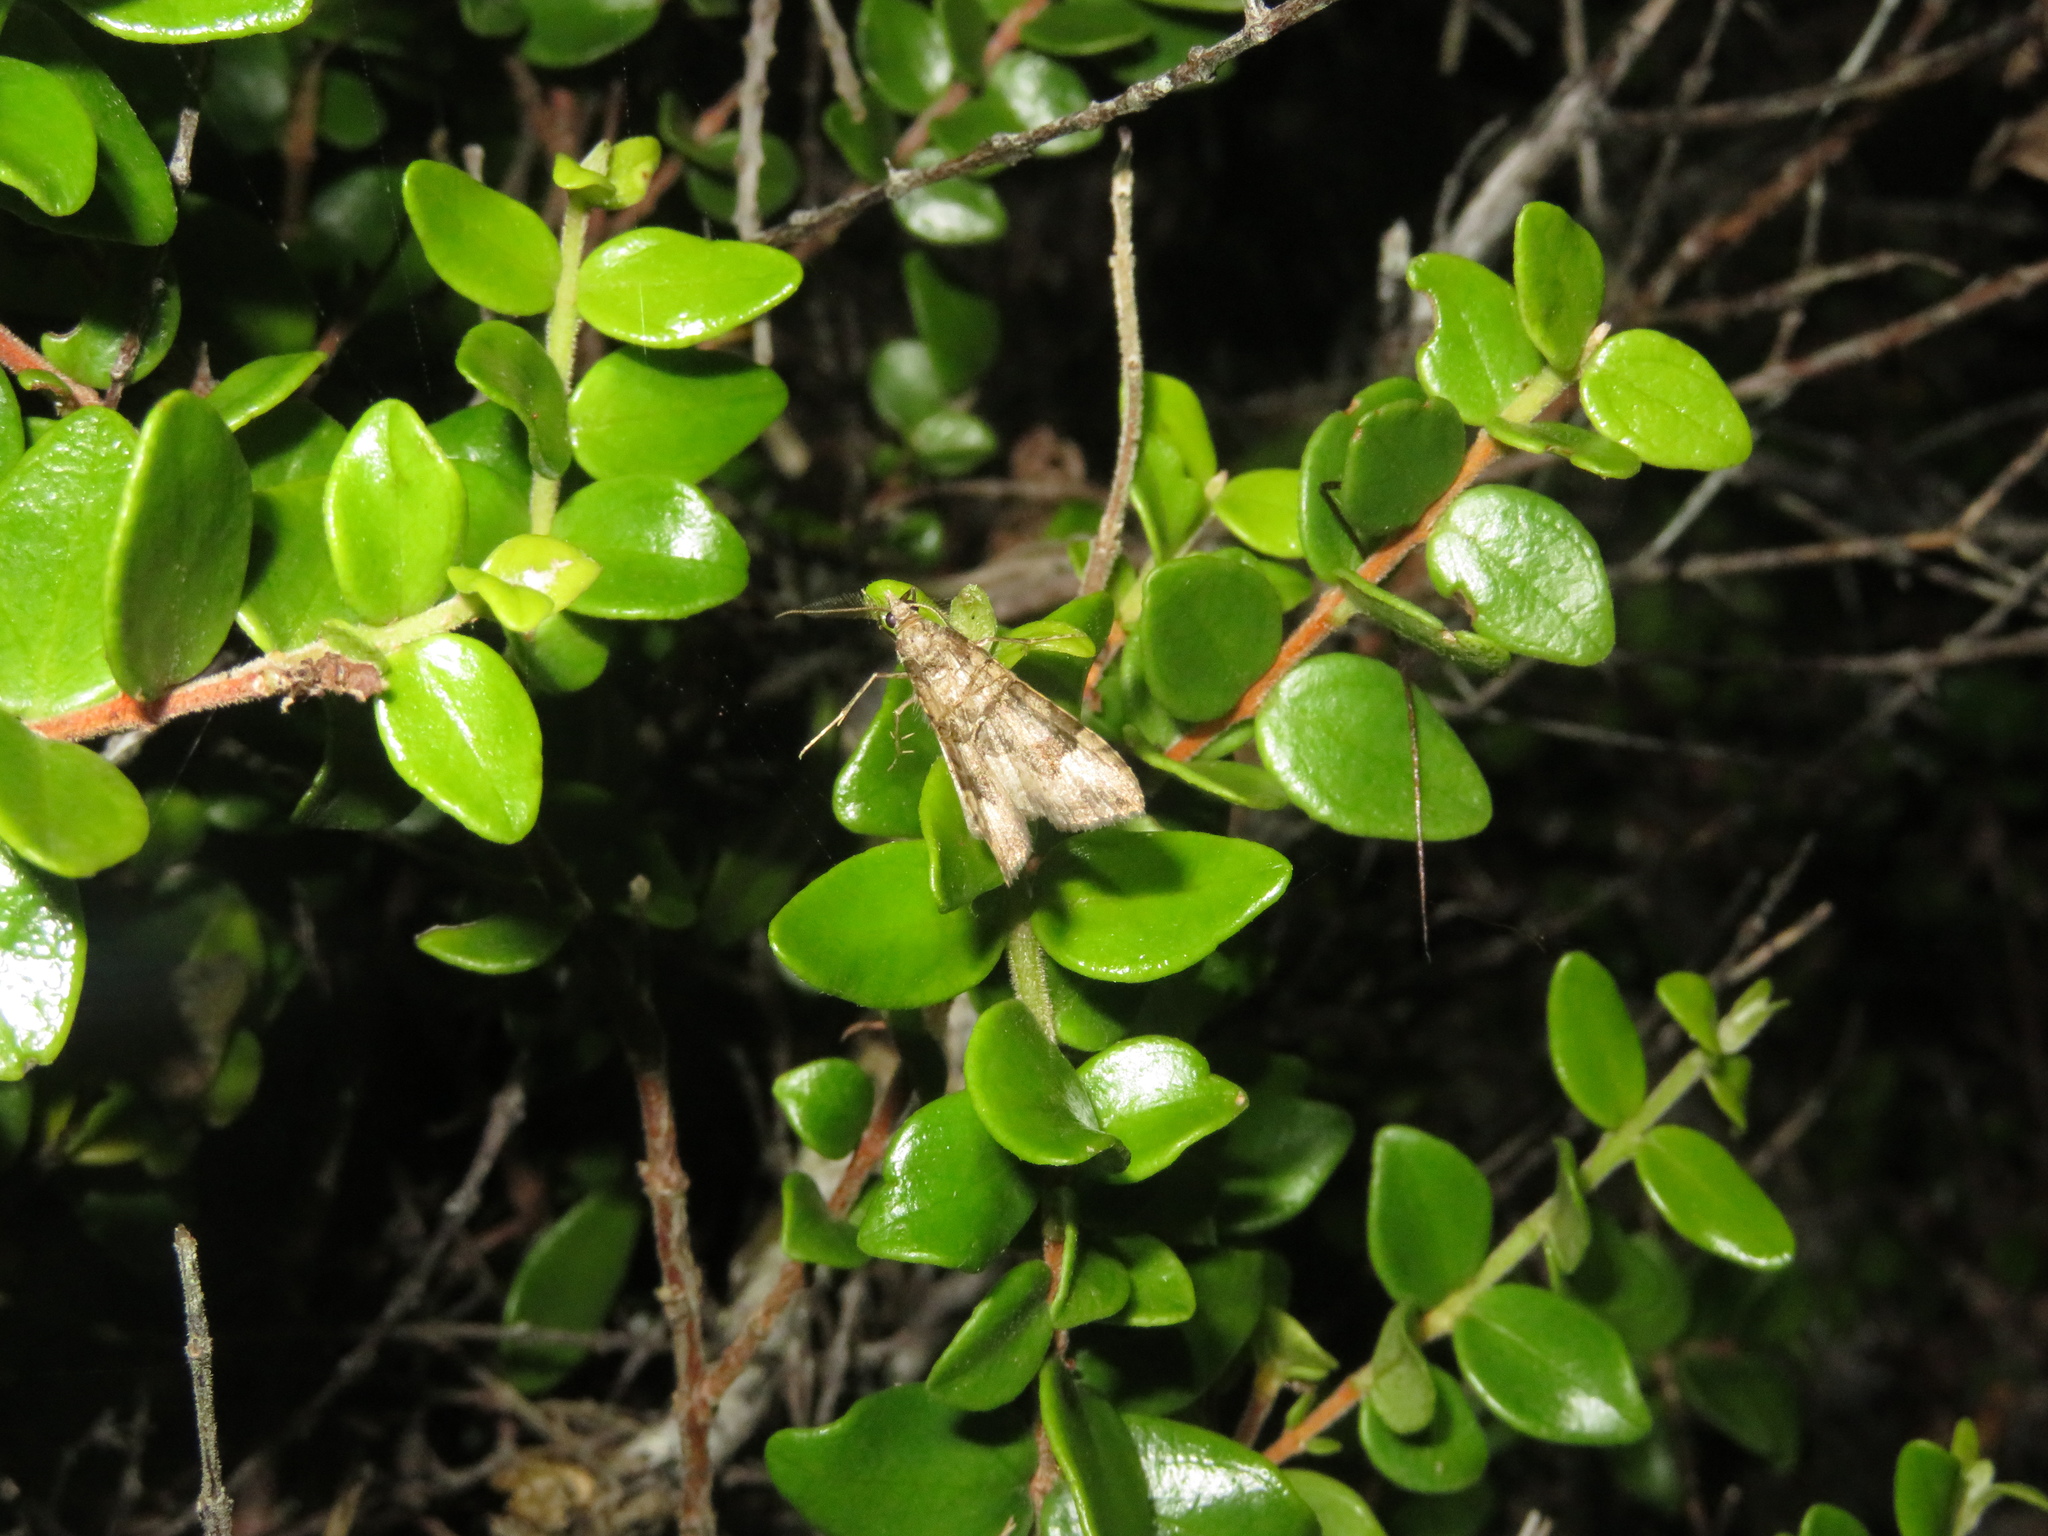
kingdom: Animalia
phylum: Arthropoda
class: Insecta
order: Lepidoptera
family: Geometridae
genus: Epyaxa
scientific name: Epyaxa rosearia
